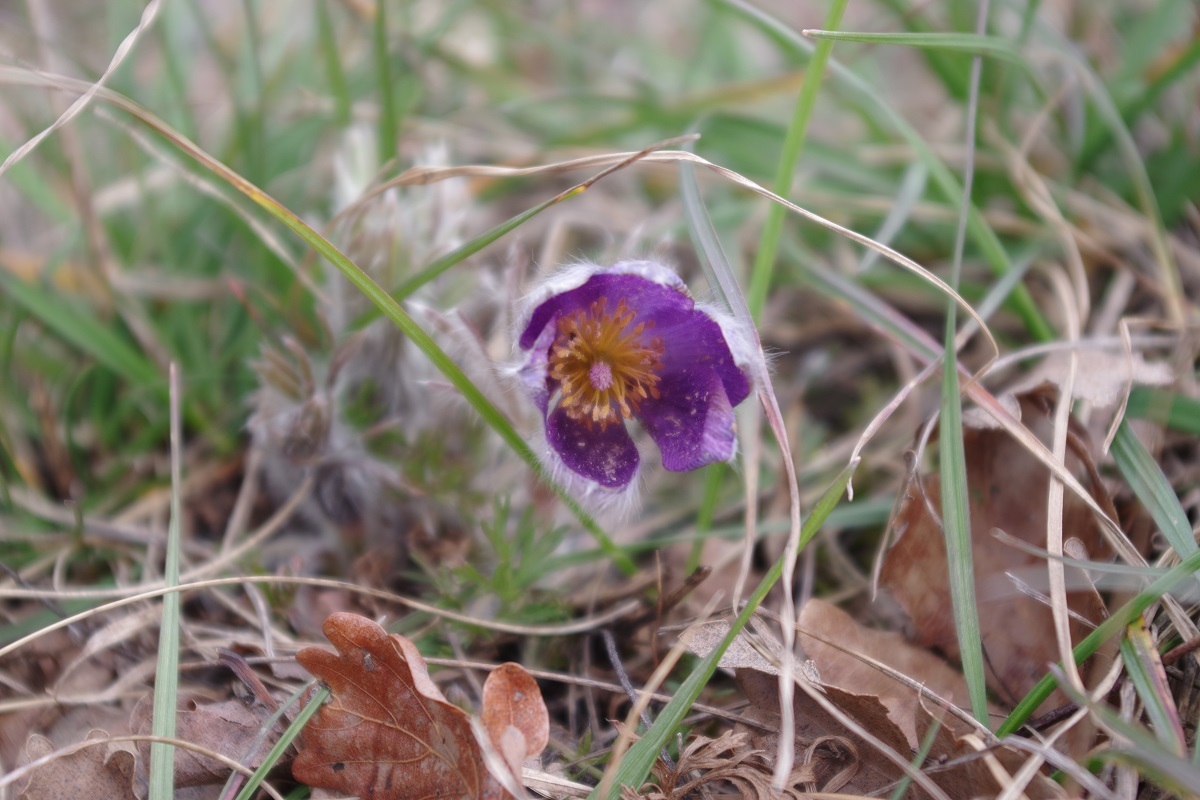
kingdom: Plantae
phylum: Tracheophyta
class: Magnoliopsida
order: Ranunculales
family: Ranunculaceae
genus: Pulsatilla
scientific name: Pulsatilla vulgaris
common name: Pasqueflower
